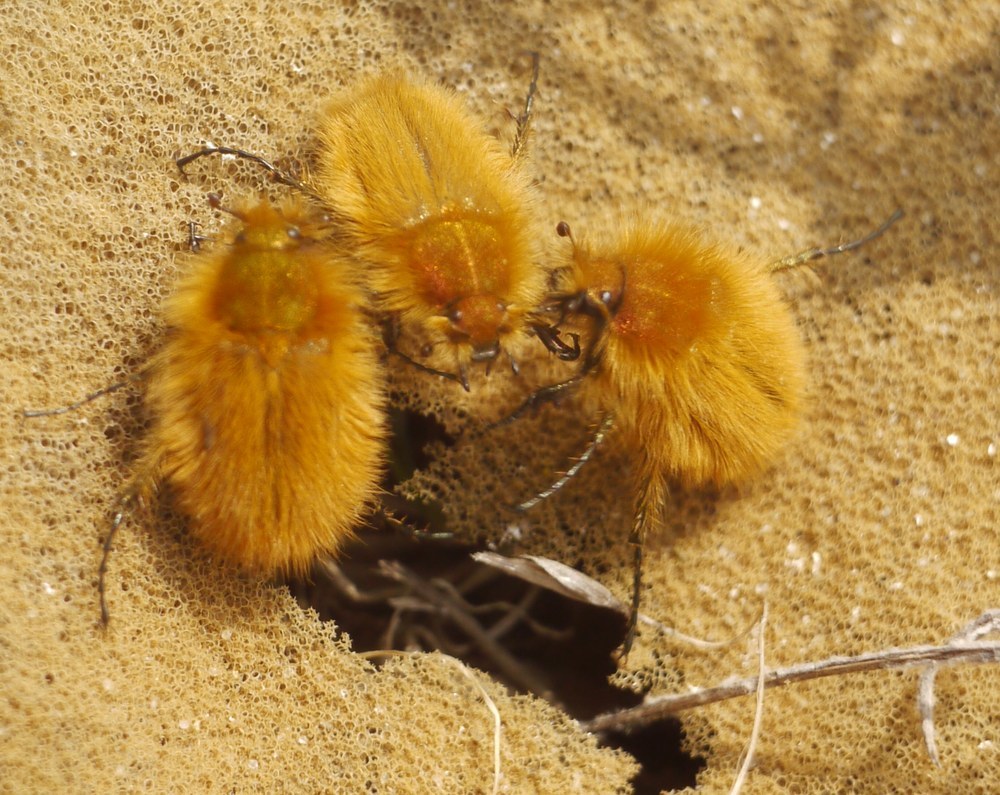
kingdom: Animalia
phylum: Arthropoda
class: Insecta
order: Coleoptera
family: Glaphyridae
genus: Pygopleurus
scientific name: Pygopleurus vulpes
